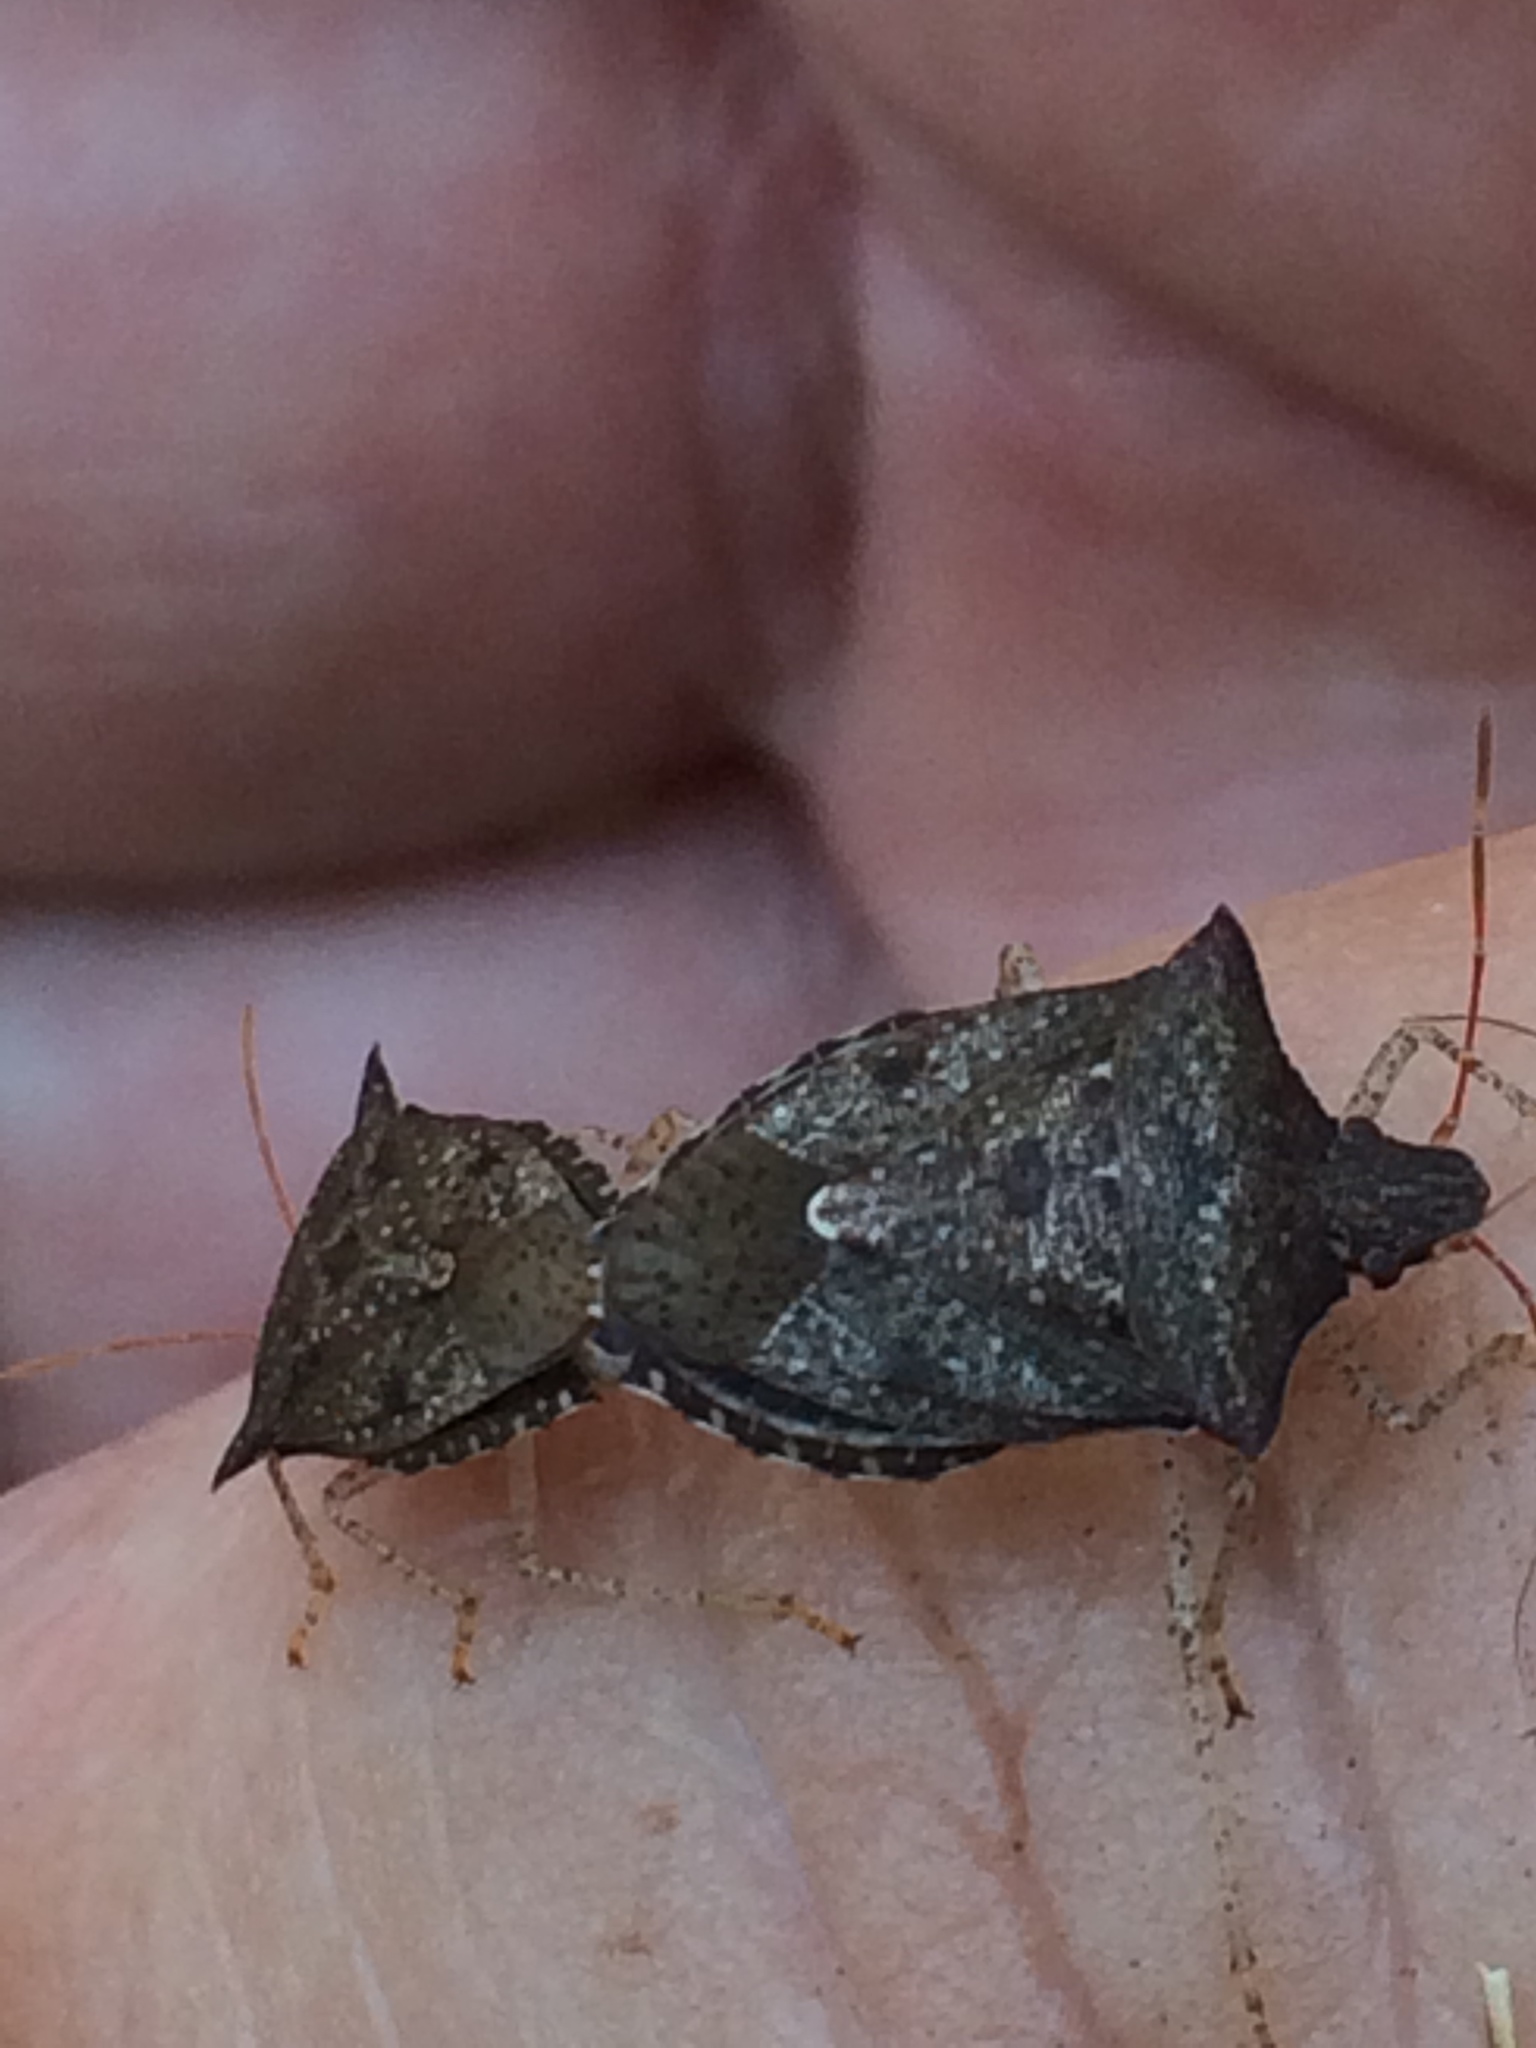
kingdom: Animalia
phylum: Arthropoda
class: Insecta
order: Hemiptera
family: Pentatomidae
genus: Euschistus
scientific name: Euschistus tristigmus
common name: Dusky stink bug
